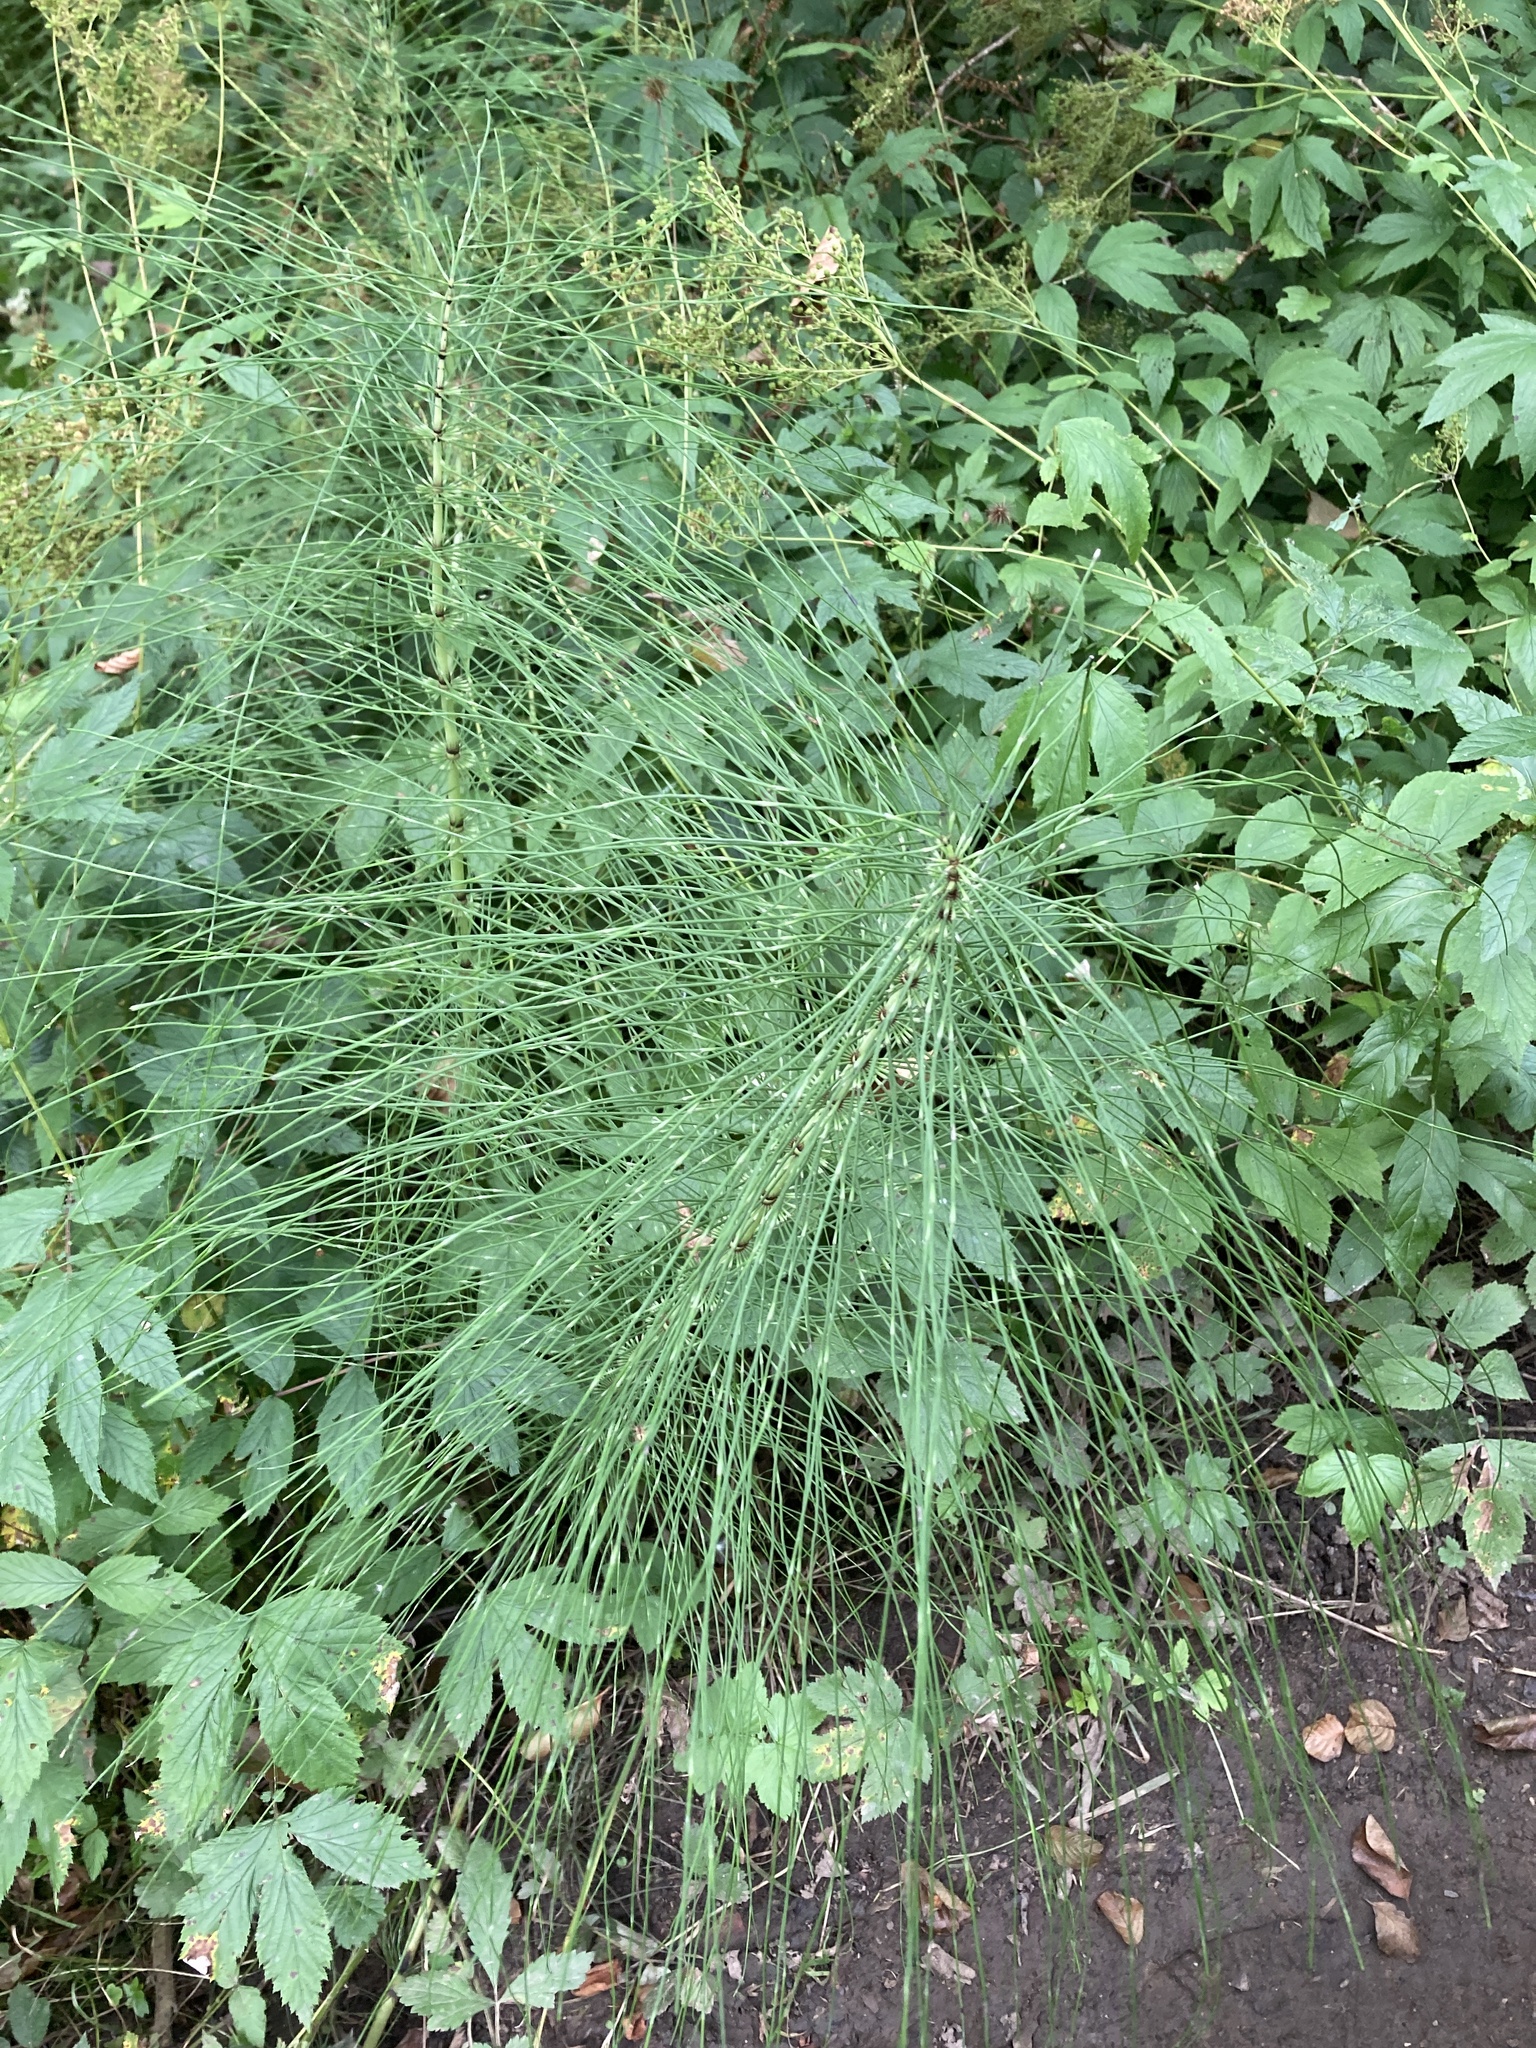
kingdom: Plantae
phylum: Tracheophyta
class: Polypodiopsida
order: Equisetales
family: Equisetaceae
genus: Equisetum
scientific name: Equisetum telmateia
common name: Great horsetail
